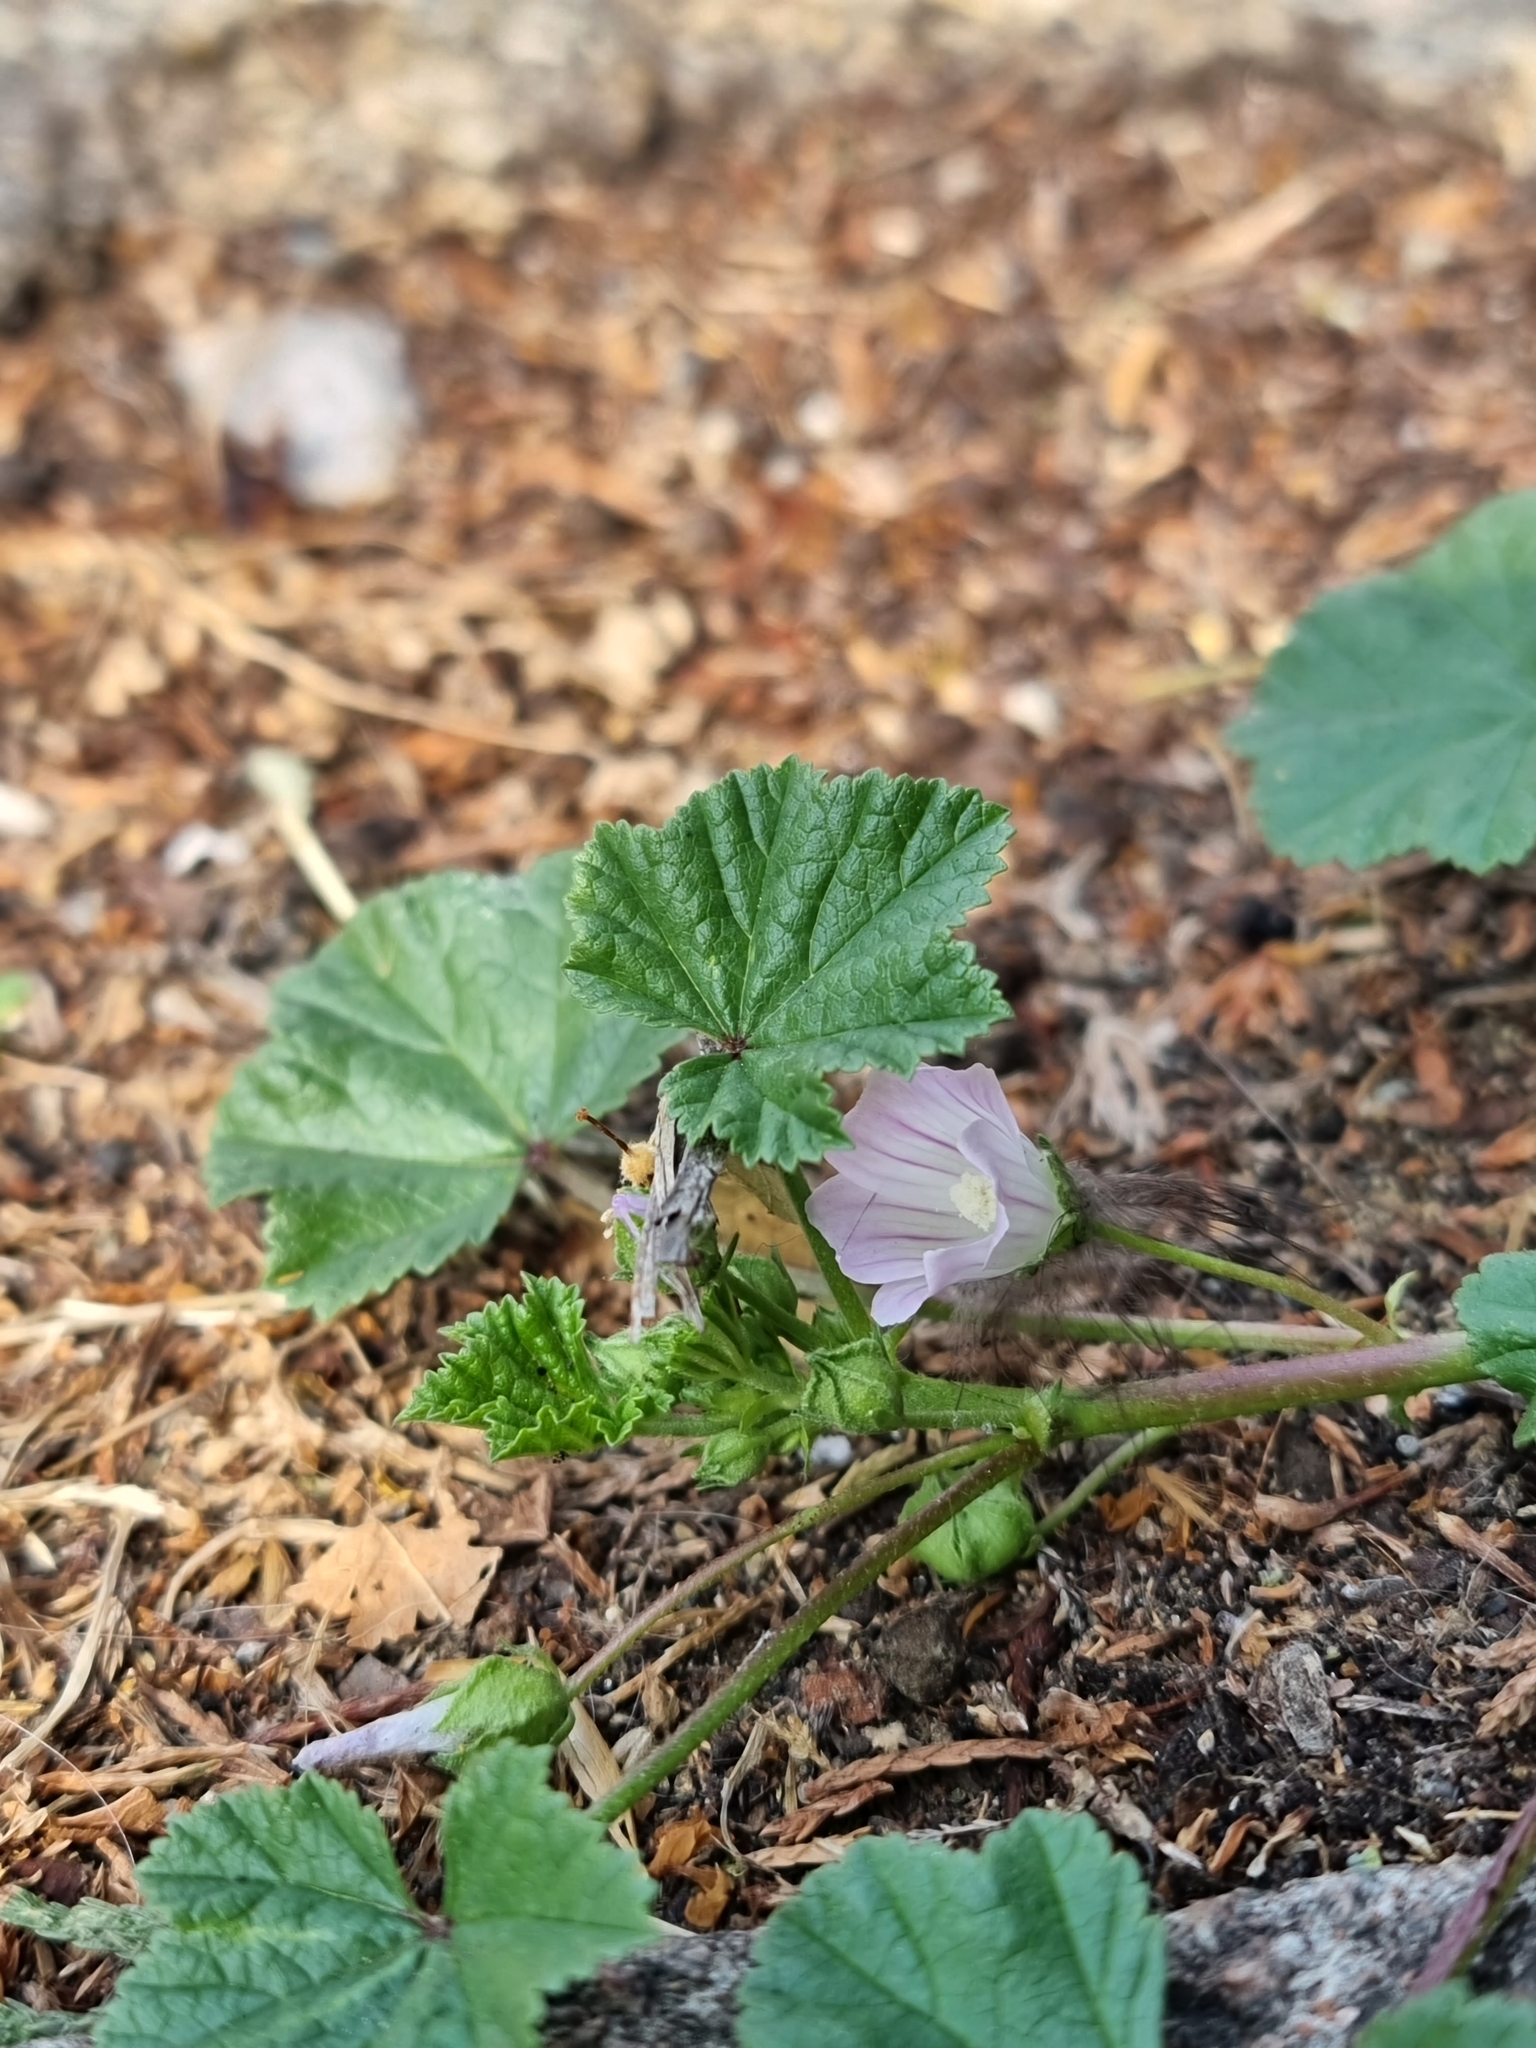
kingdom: Plantae
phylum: Tracheophyta
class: Magnoliopsida
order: Malvales
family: Malvaceae
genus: Malva
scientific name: Malva neglecta
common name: Common mallow
